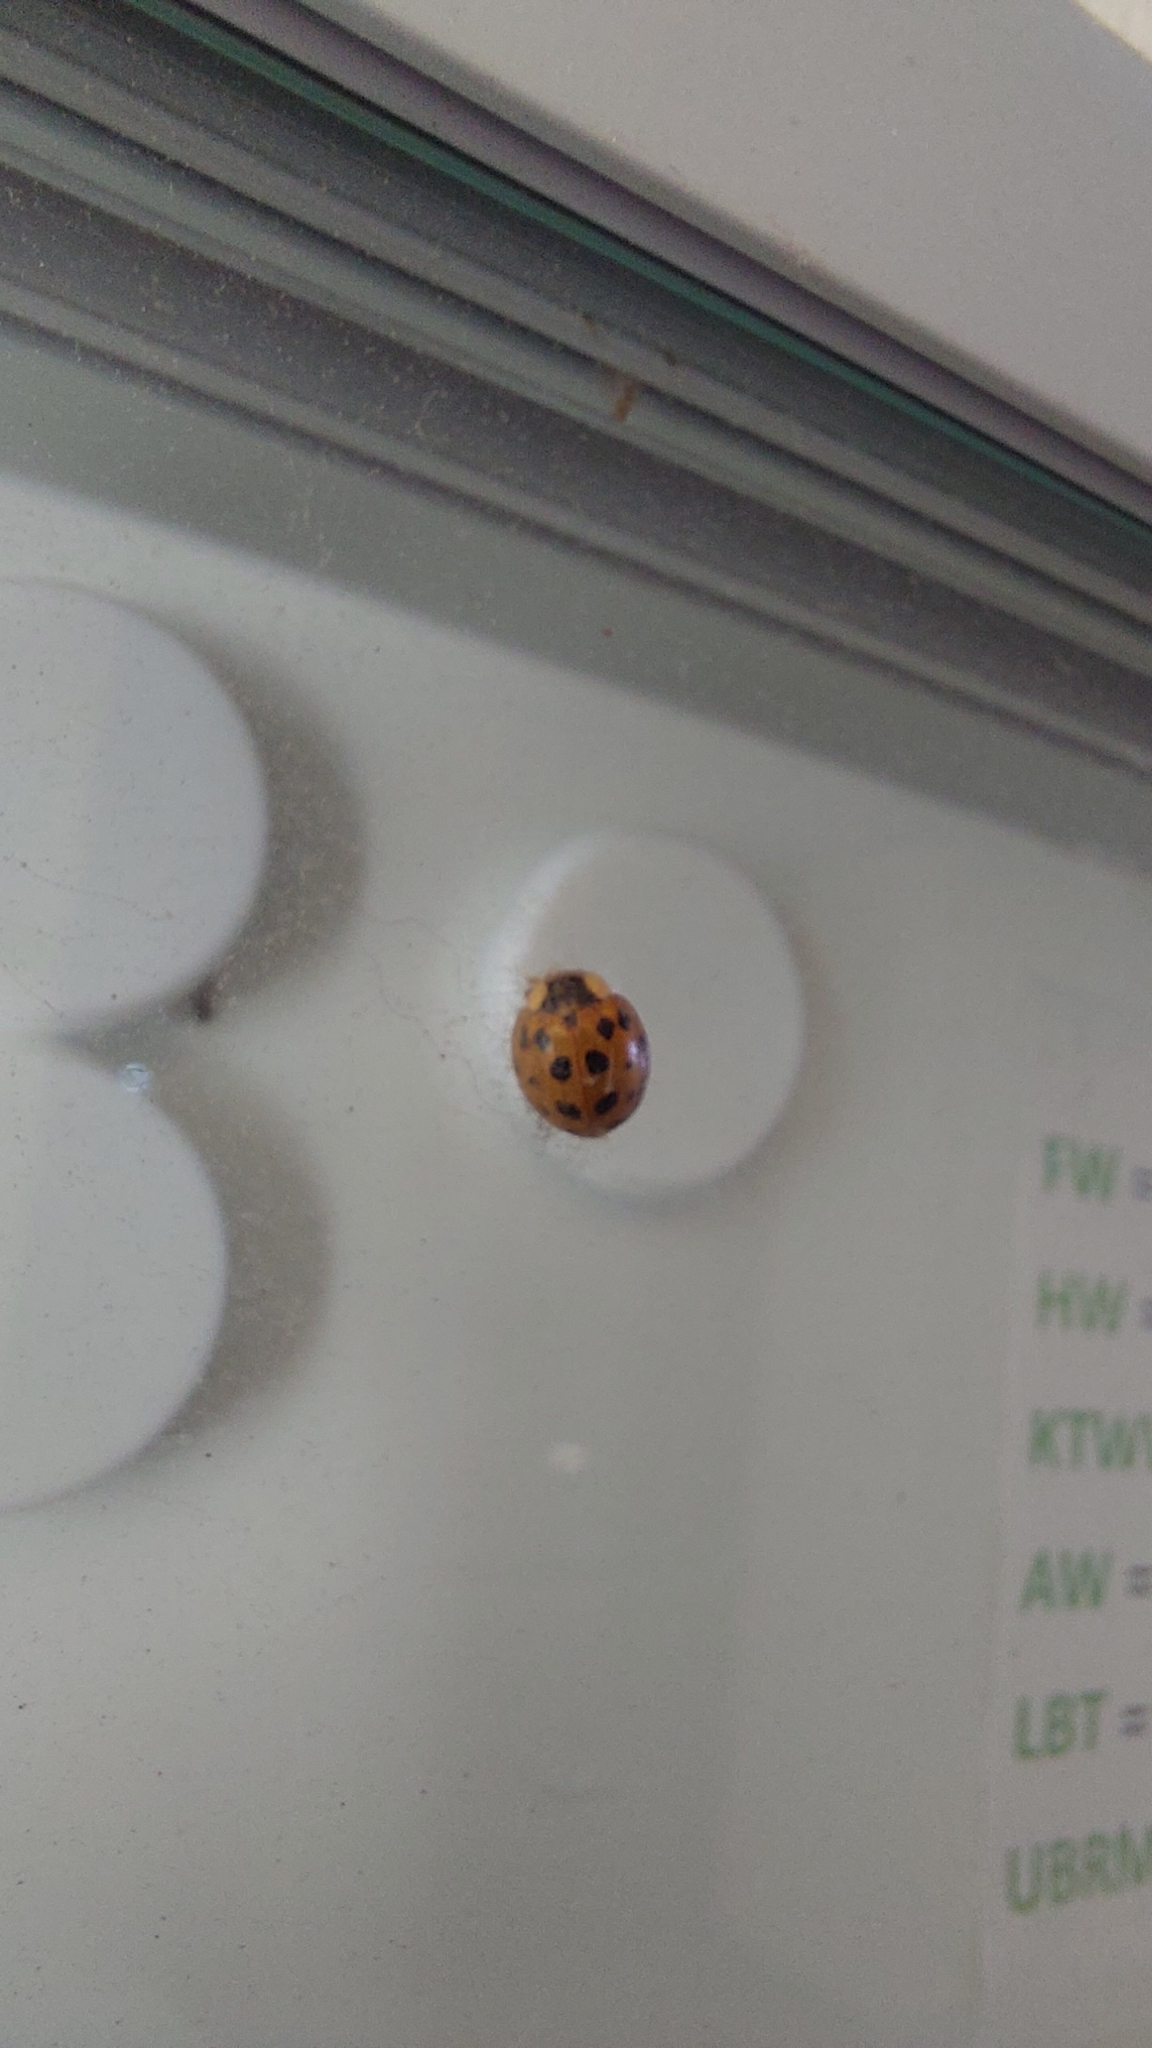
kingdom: Animalia
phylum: Arthropoda
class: Insecta
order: Coleoptera
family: Coccinellidae
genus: Harmonia
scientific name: Harmonia axyridis
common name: Harlequin ladybird
